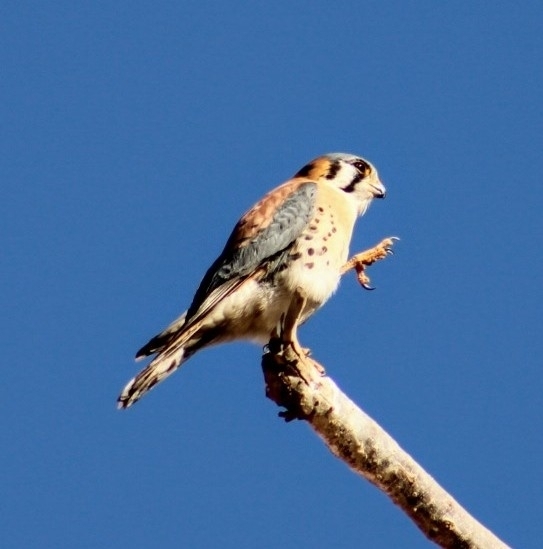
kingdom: Animalia
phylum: Chordata
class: Aves
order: Falconiformes
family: Falconidae
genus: Falco
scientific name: Falco sparverius
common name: American kestrel
